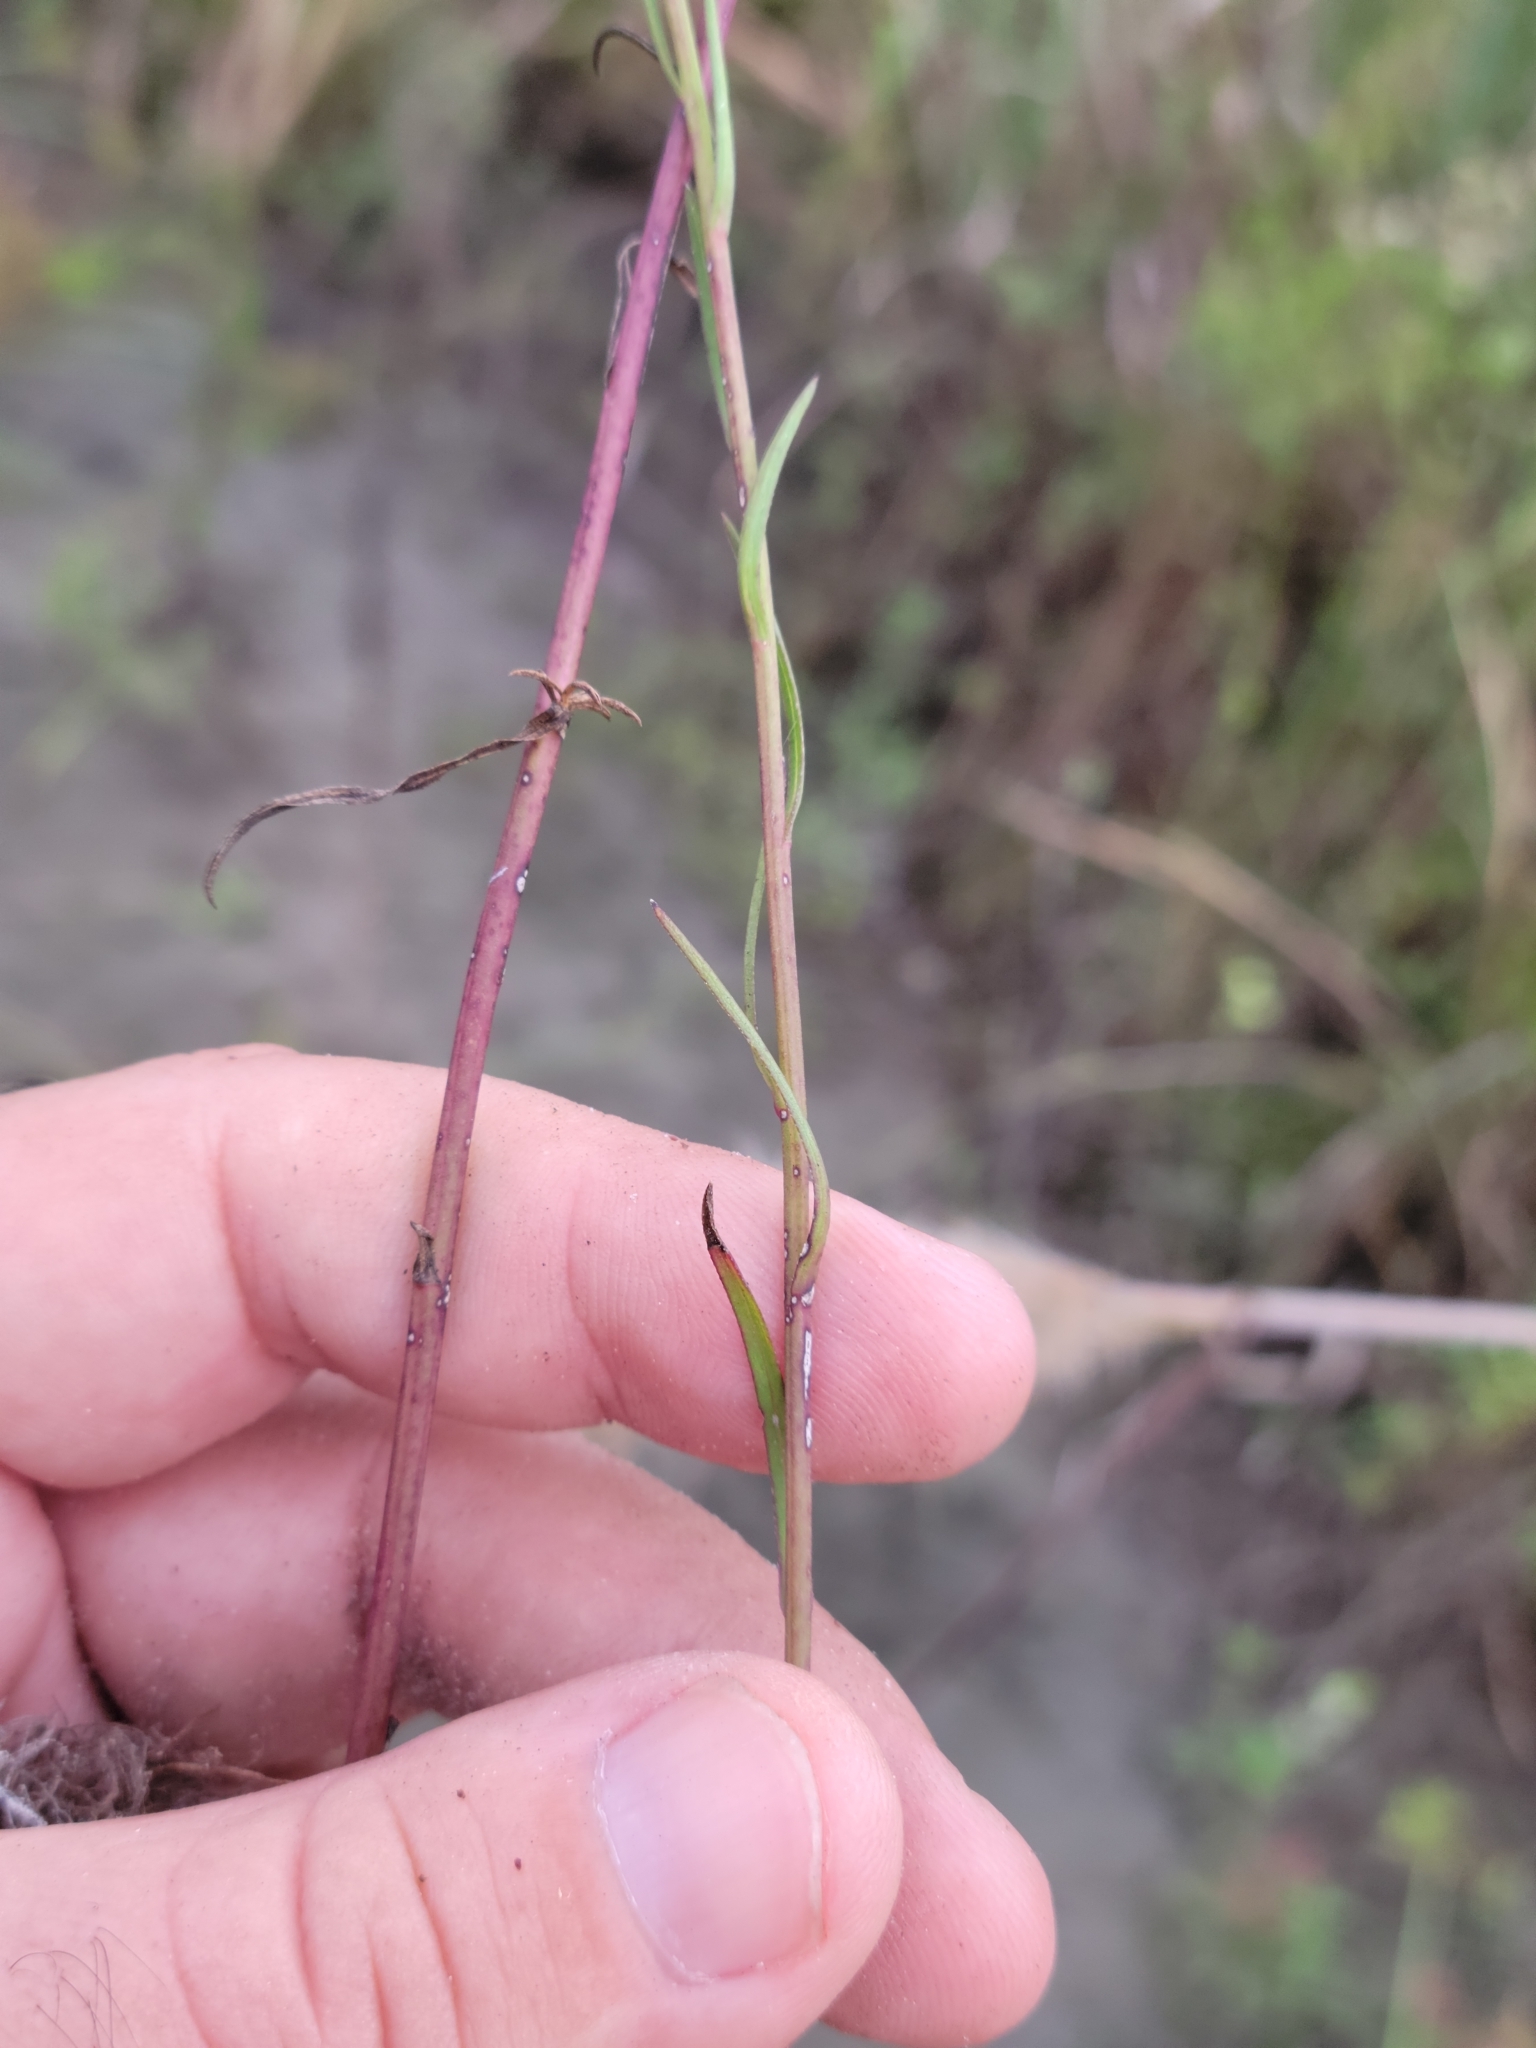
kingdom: Plantae
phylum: Tracheophyta
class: Magnoliopsida
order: Asterales
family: Asteraceae
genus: Symphyotrichum
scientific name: Symphyotrichum subulatum
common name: Annual saltmarsh aster
